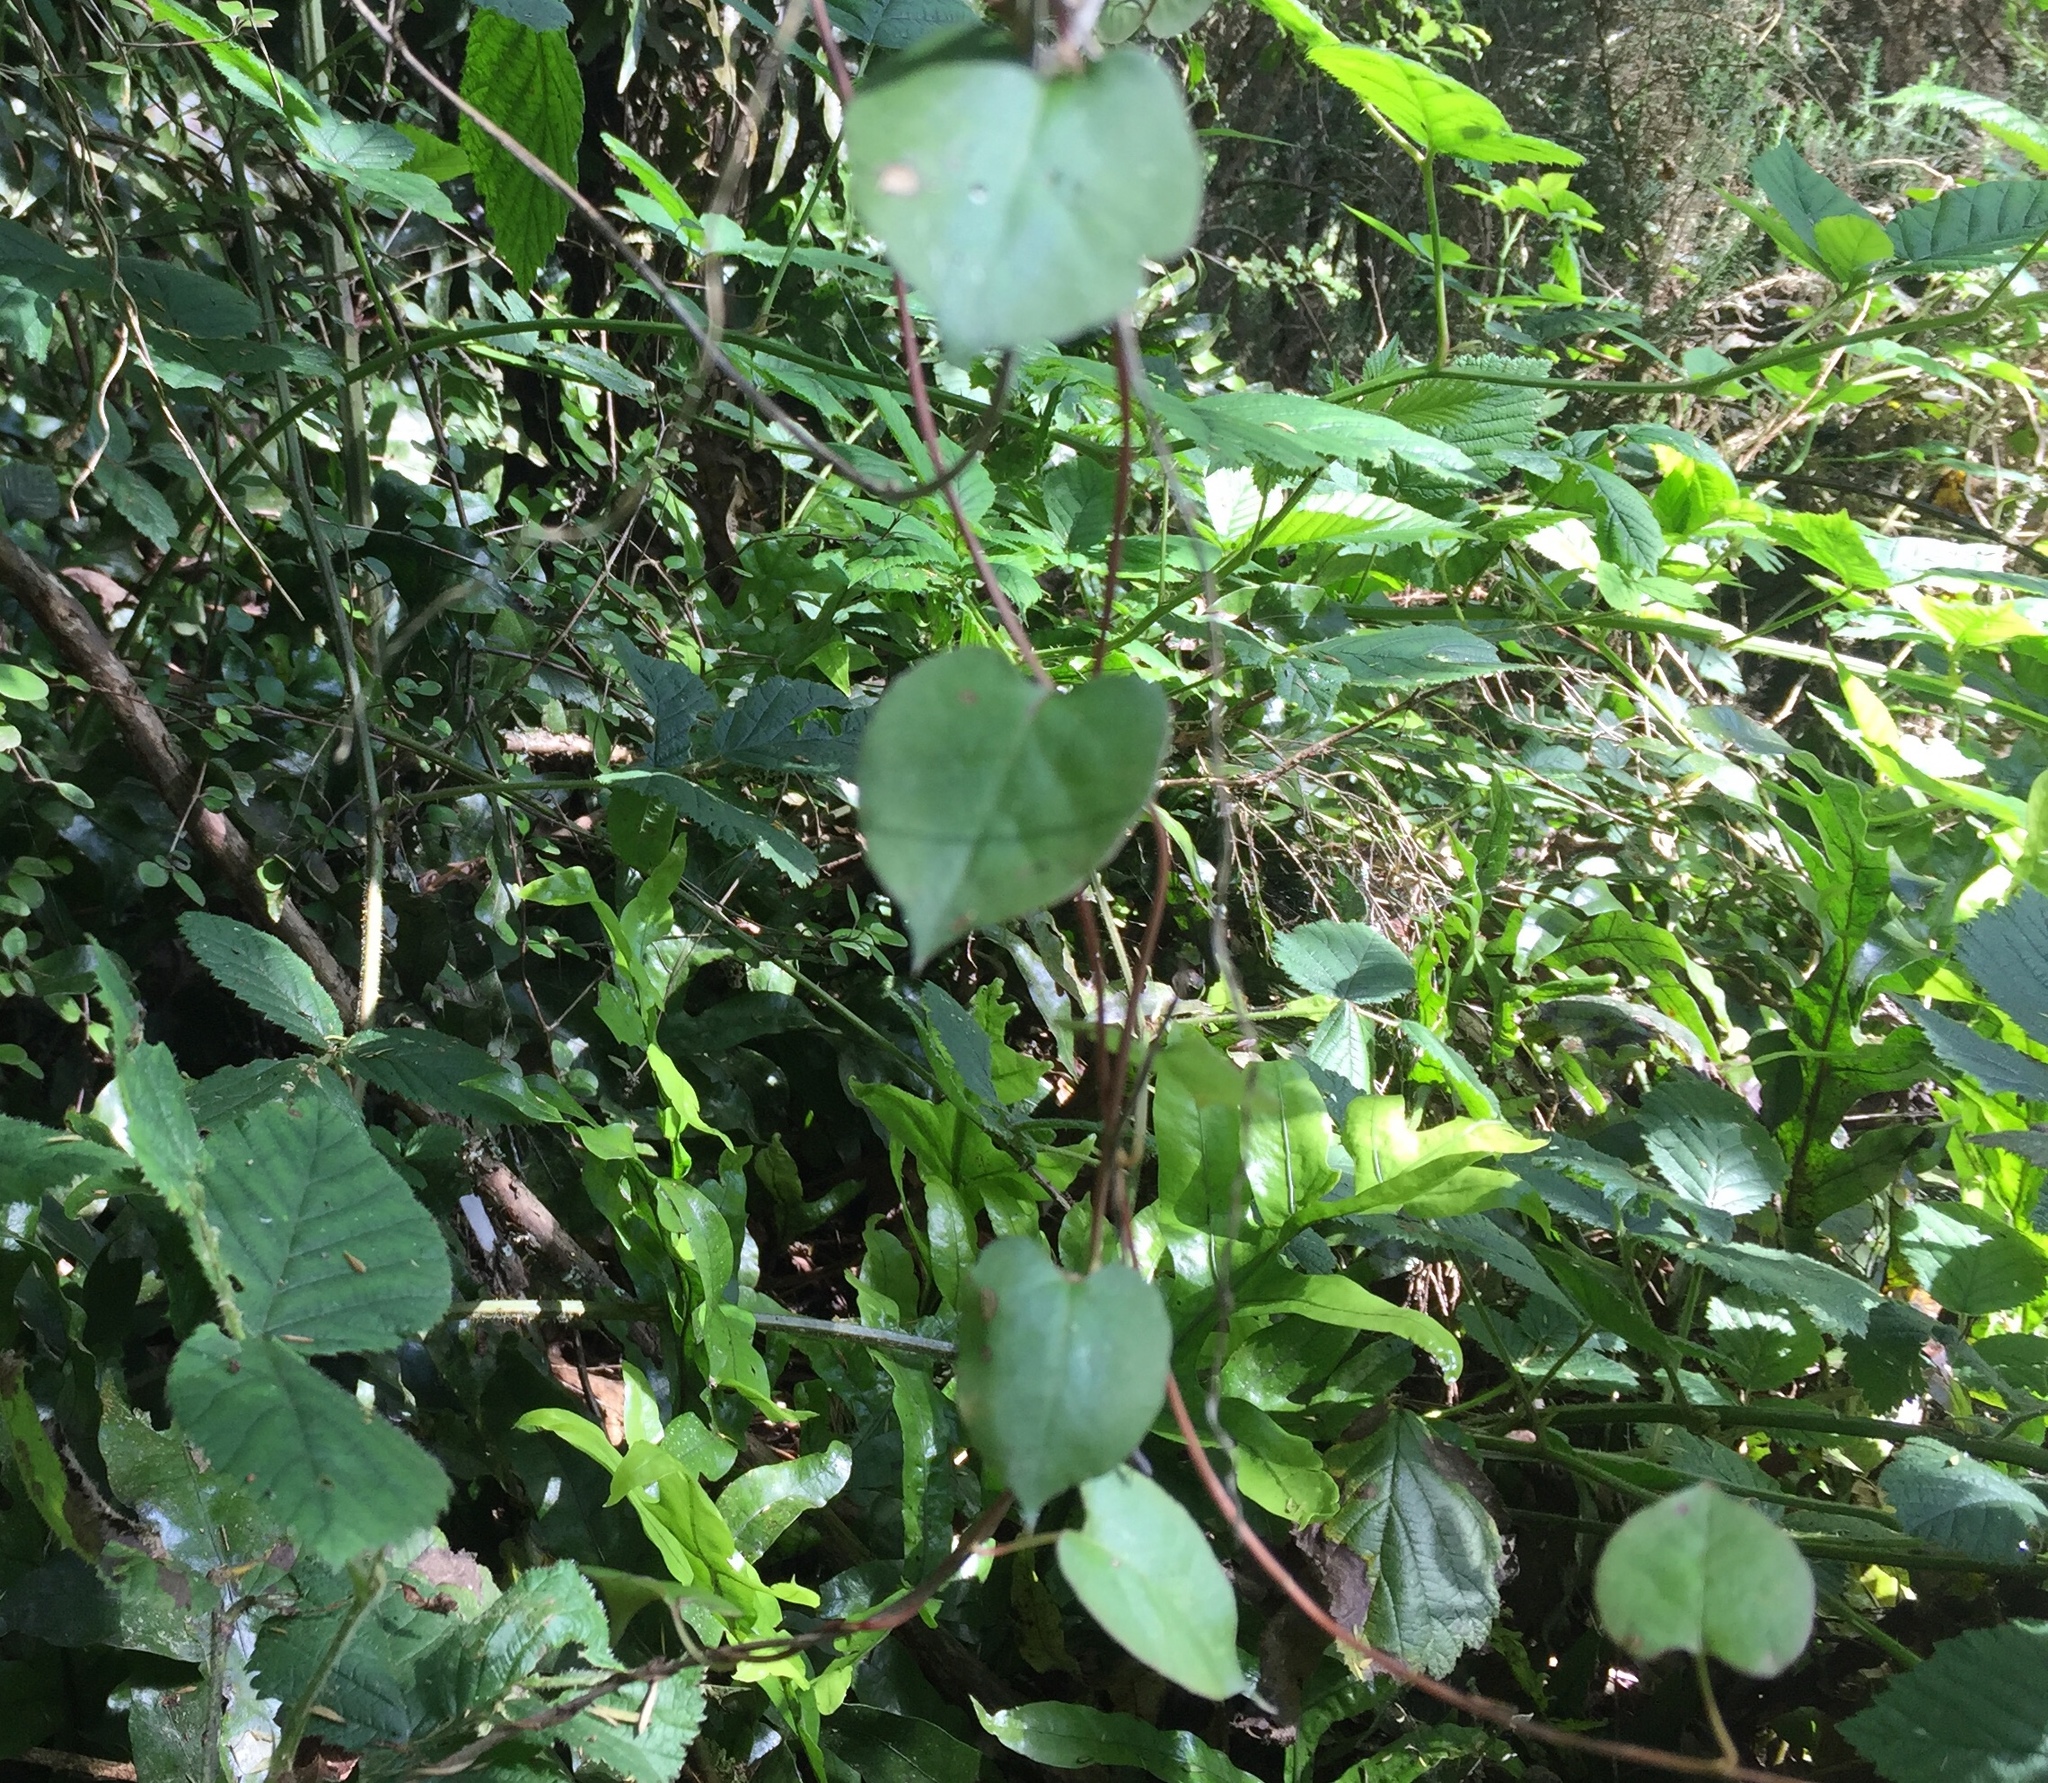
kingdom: Plantae
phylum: Tracheophyta
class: Magnoliopsida
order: Caryophyllales
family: Polygonaceae
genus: Muehlenbeckia
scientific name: Muehlenbeckia australis
